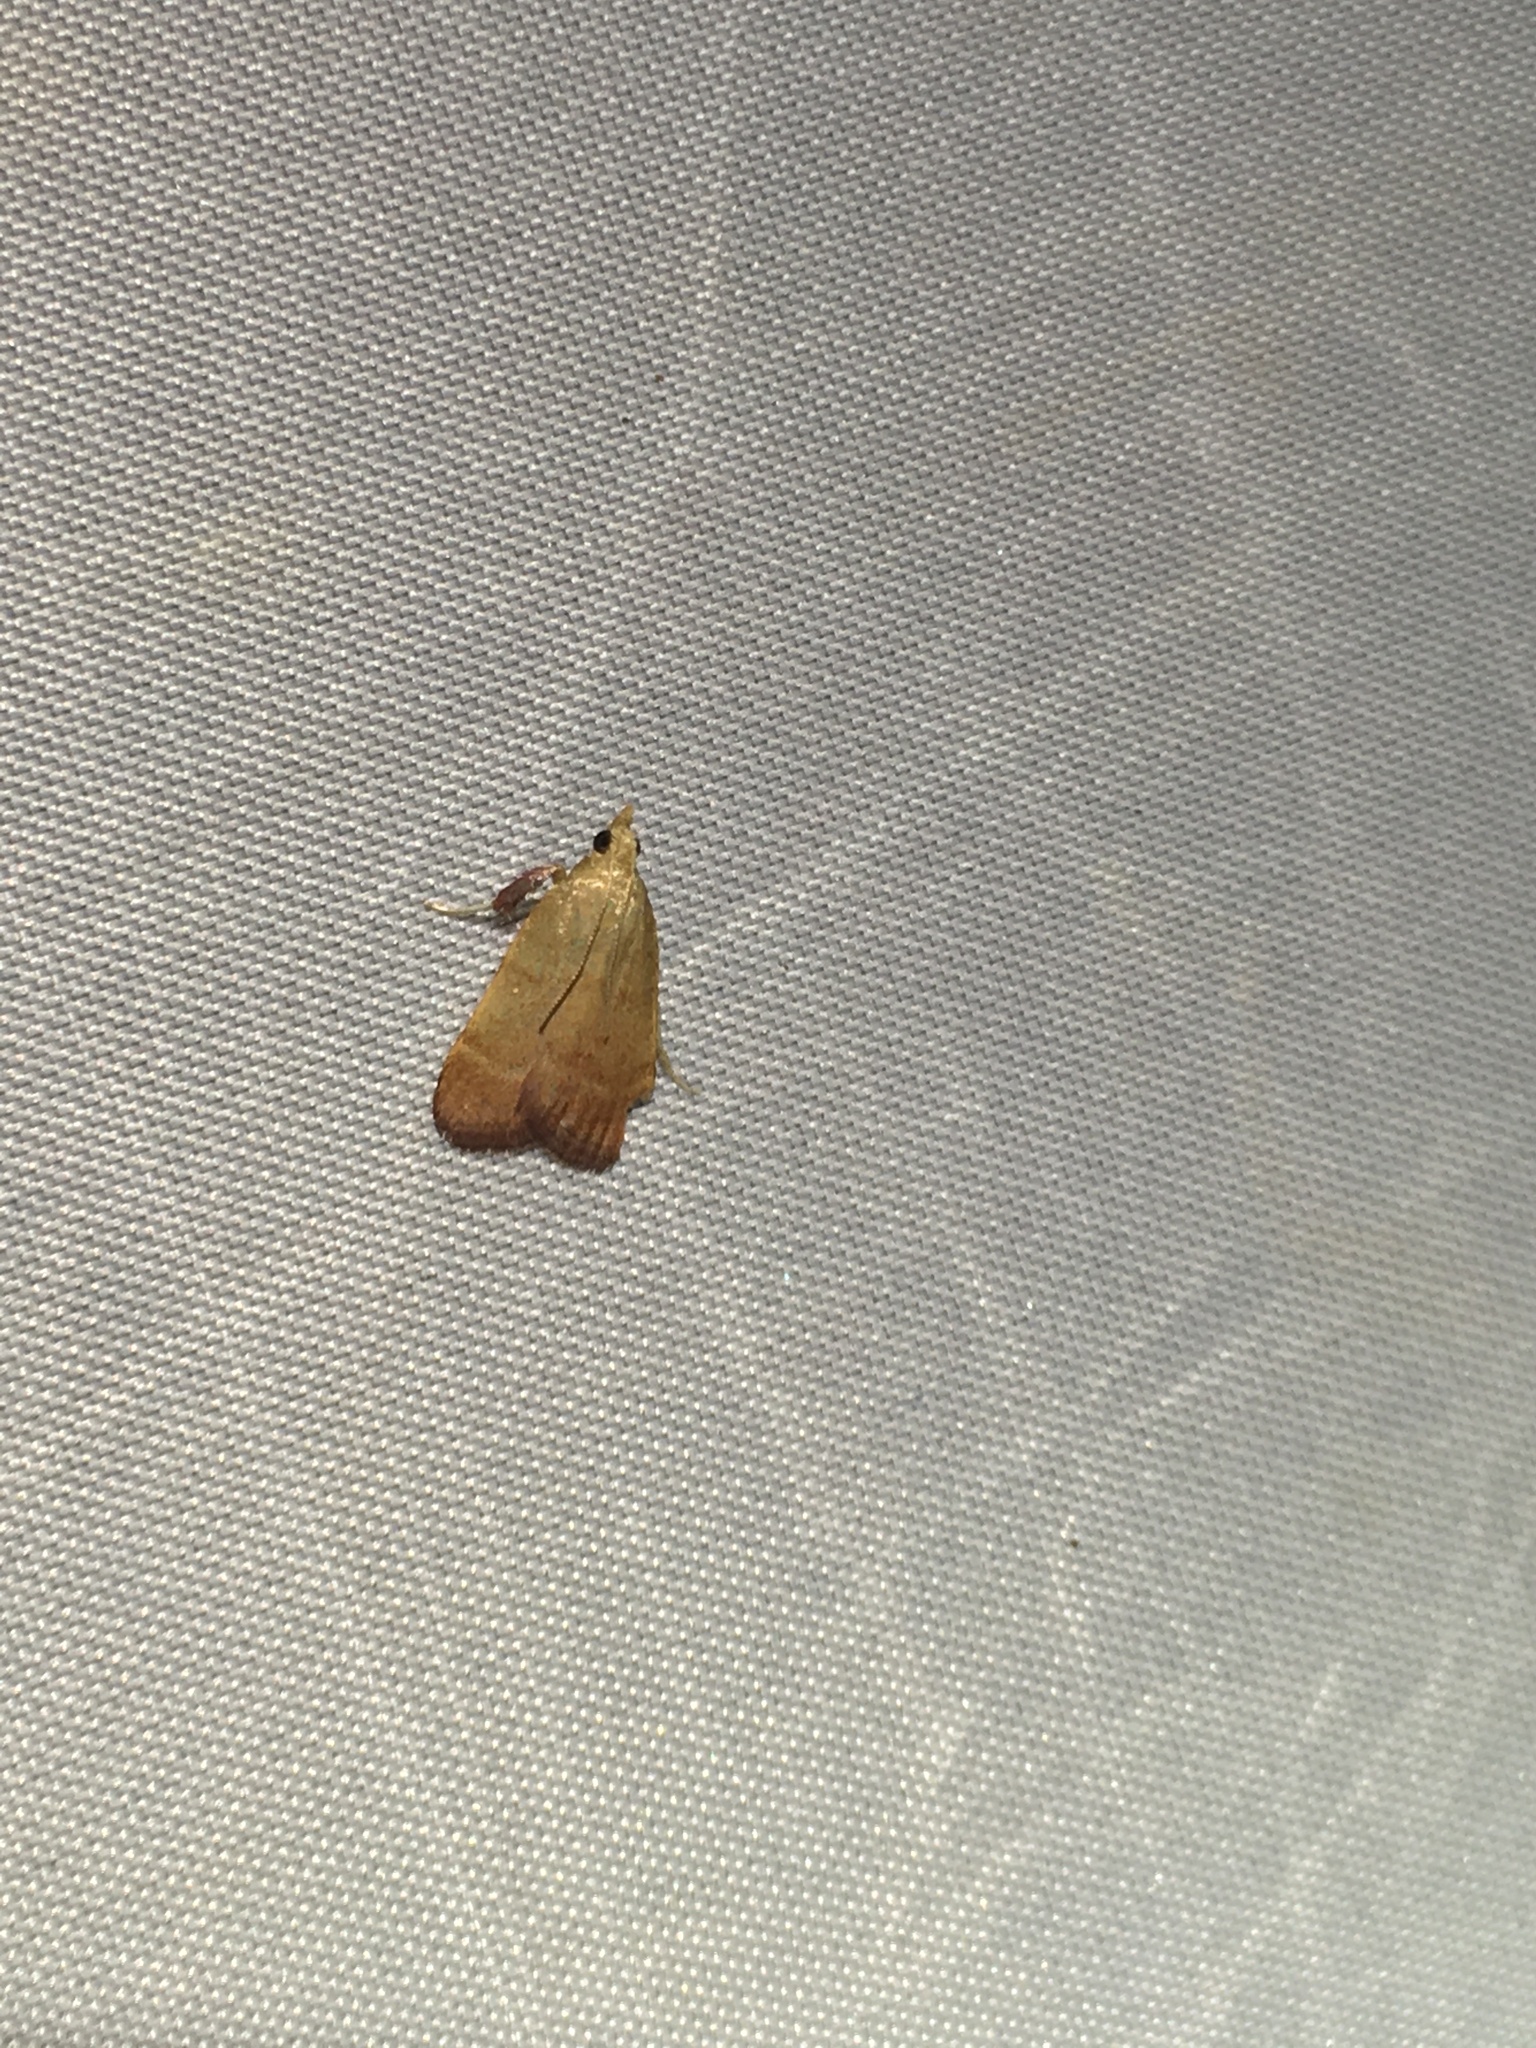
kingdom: Animalia
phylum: Arthropoda
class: Insecta
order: Lepidoptera
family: Pyralidae
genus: Condylolomia
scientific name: Condylolomia participialis
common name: Drab condylolomia moth
